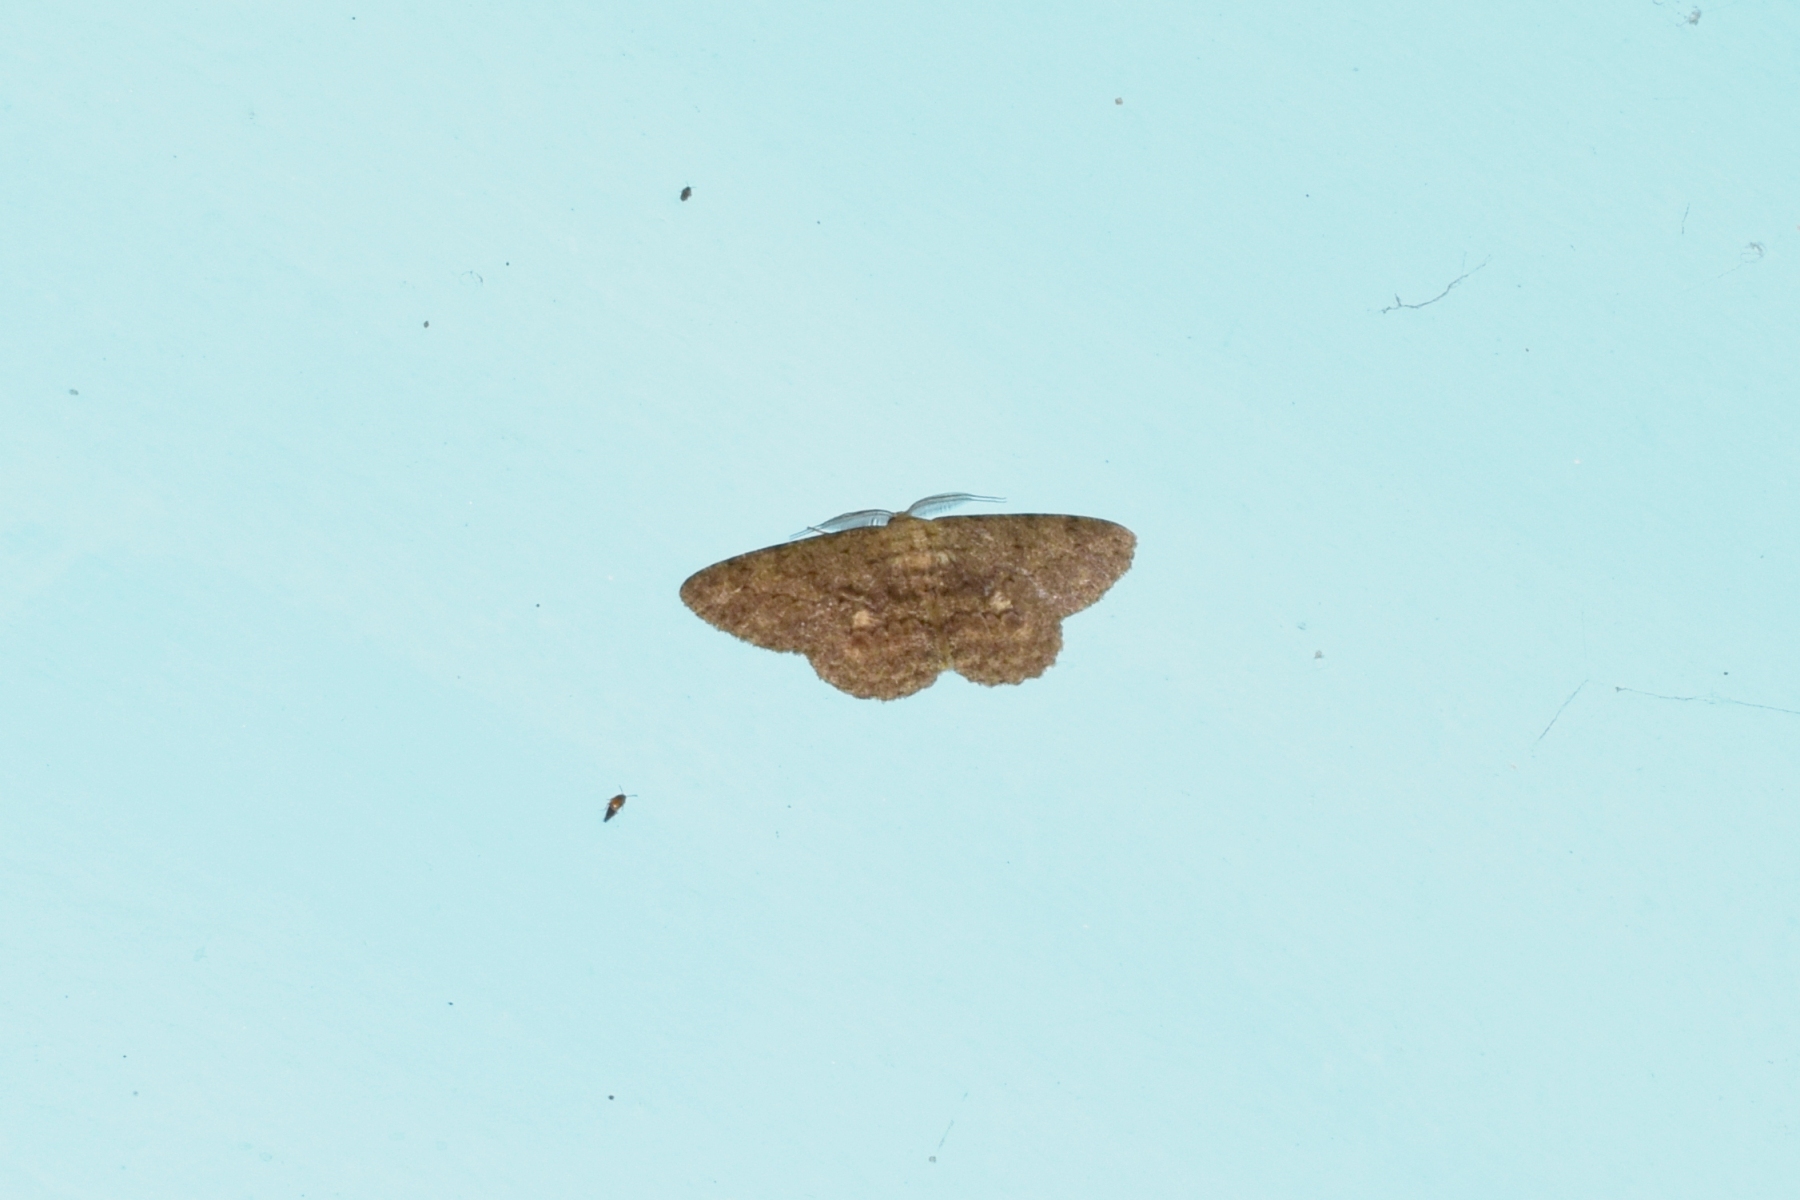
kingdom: Animalia
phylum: Arthropoda
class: Insecta
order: Lepidoptera
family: Geometridae
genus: Hypomecis
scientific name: Hypomecis lioptilaria
